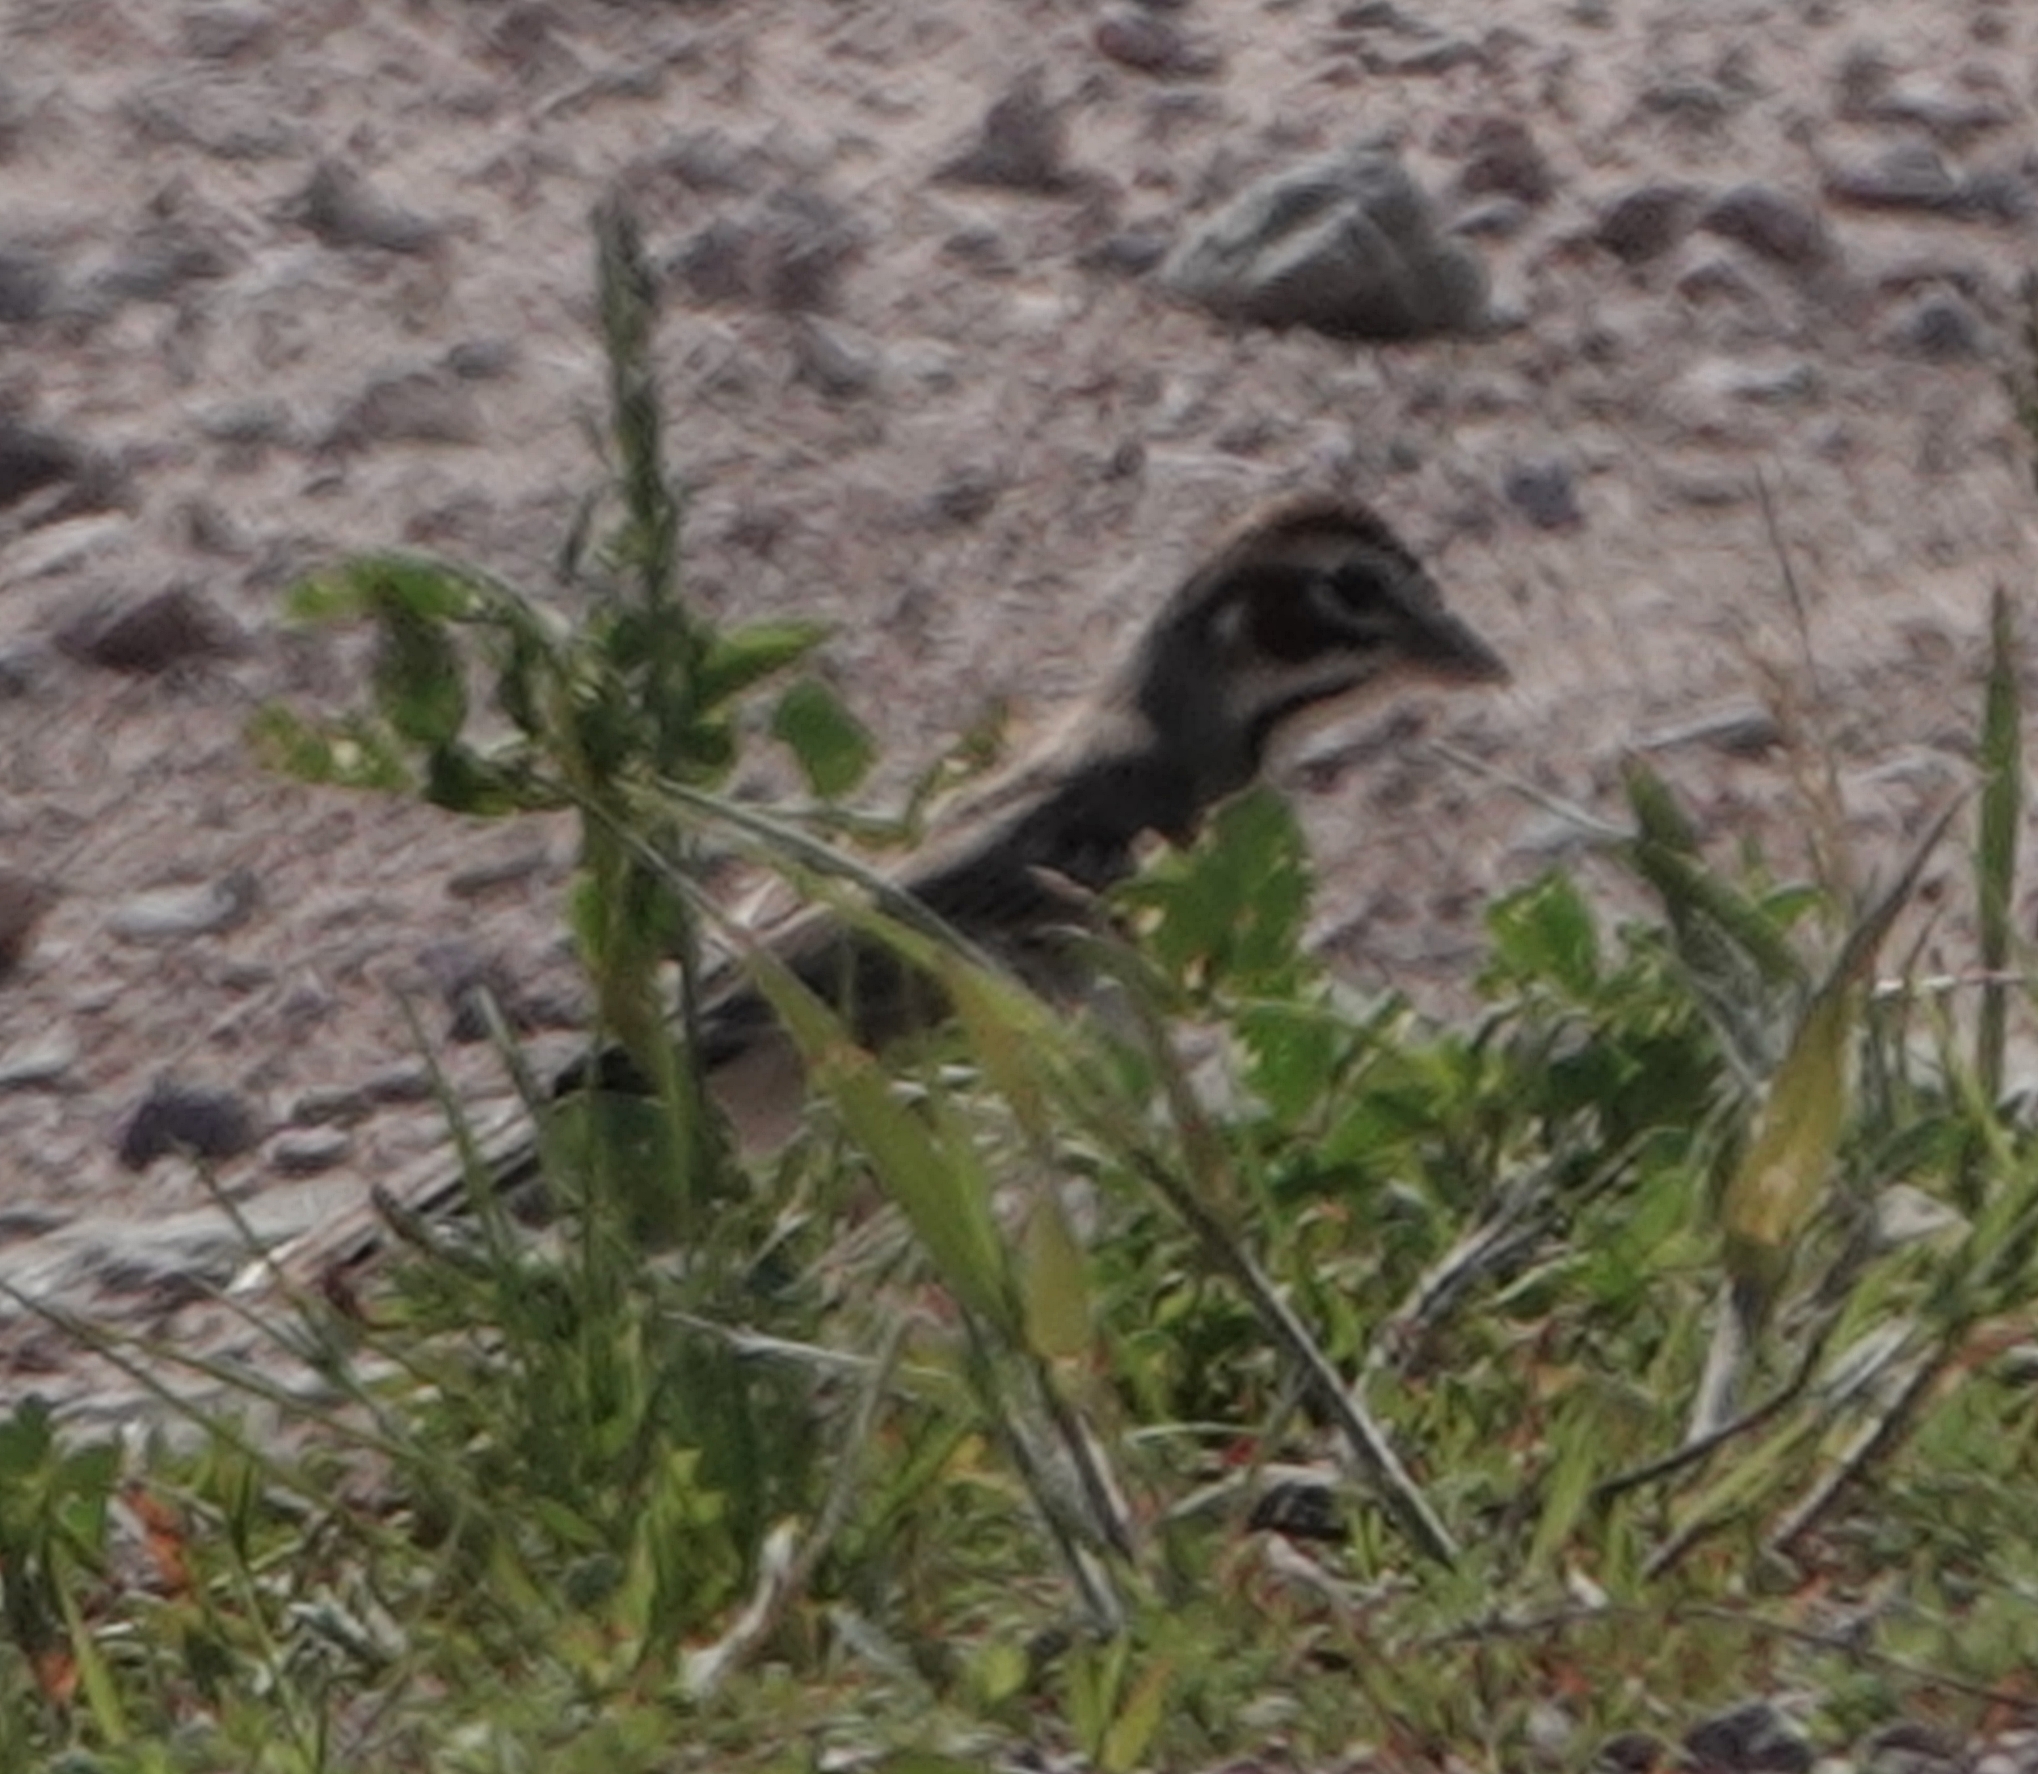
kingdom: Animalia
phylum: Chordata
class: Aves
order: Passeriformes
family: Passerellidae
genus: Chondestes
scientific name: Chondestes grammacus
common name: Lark sparrow
